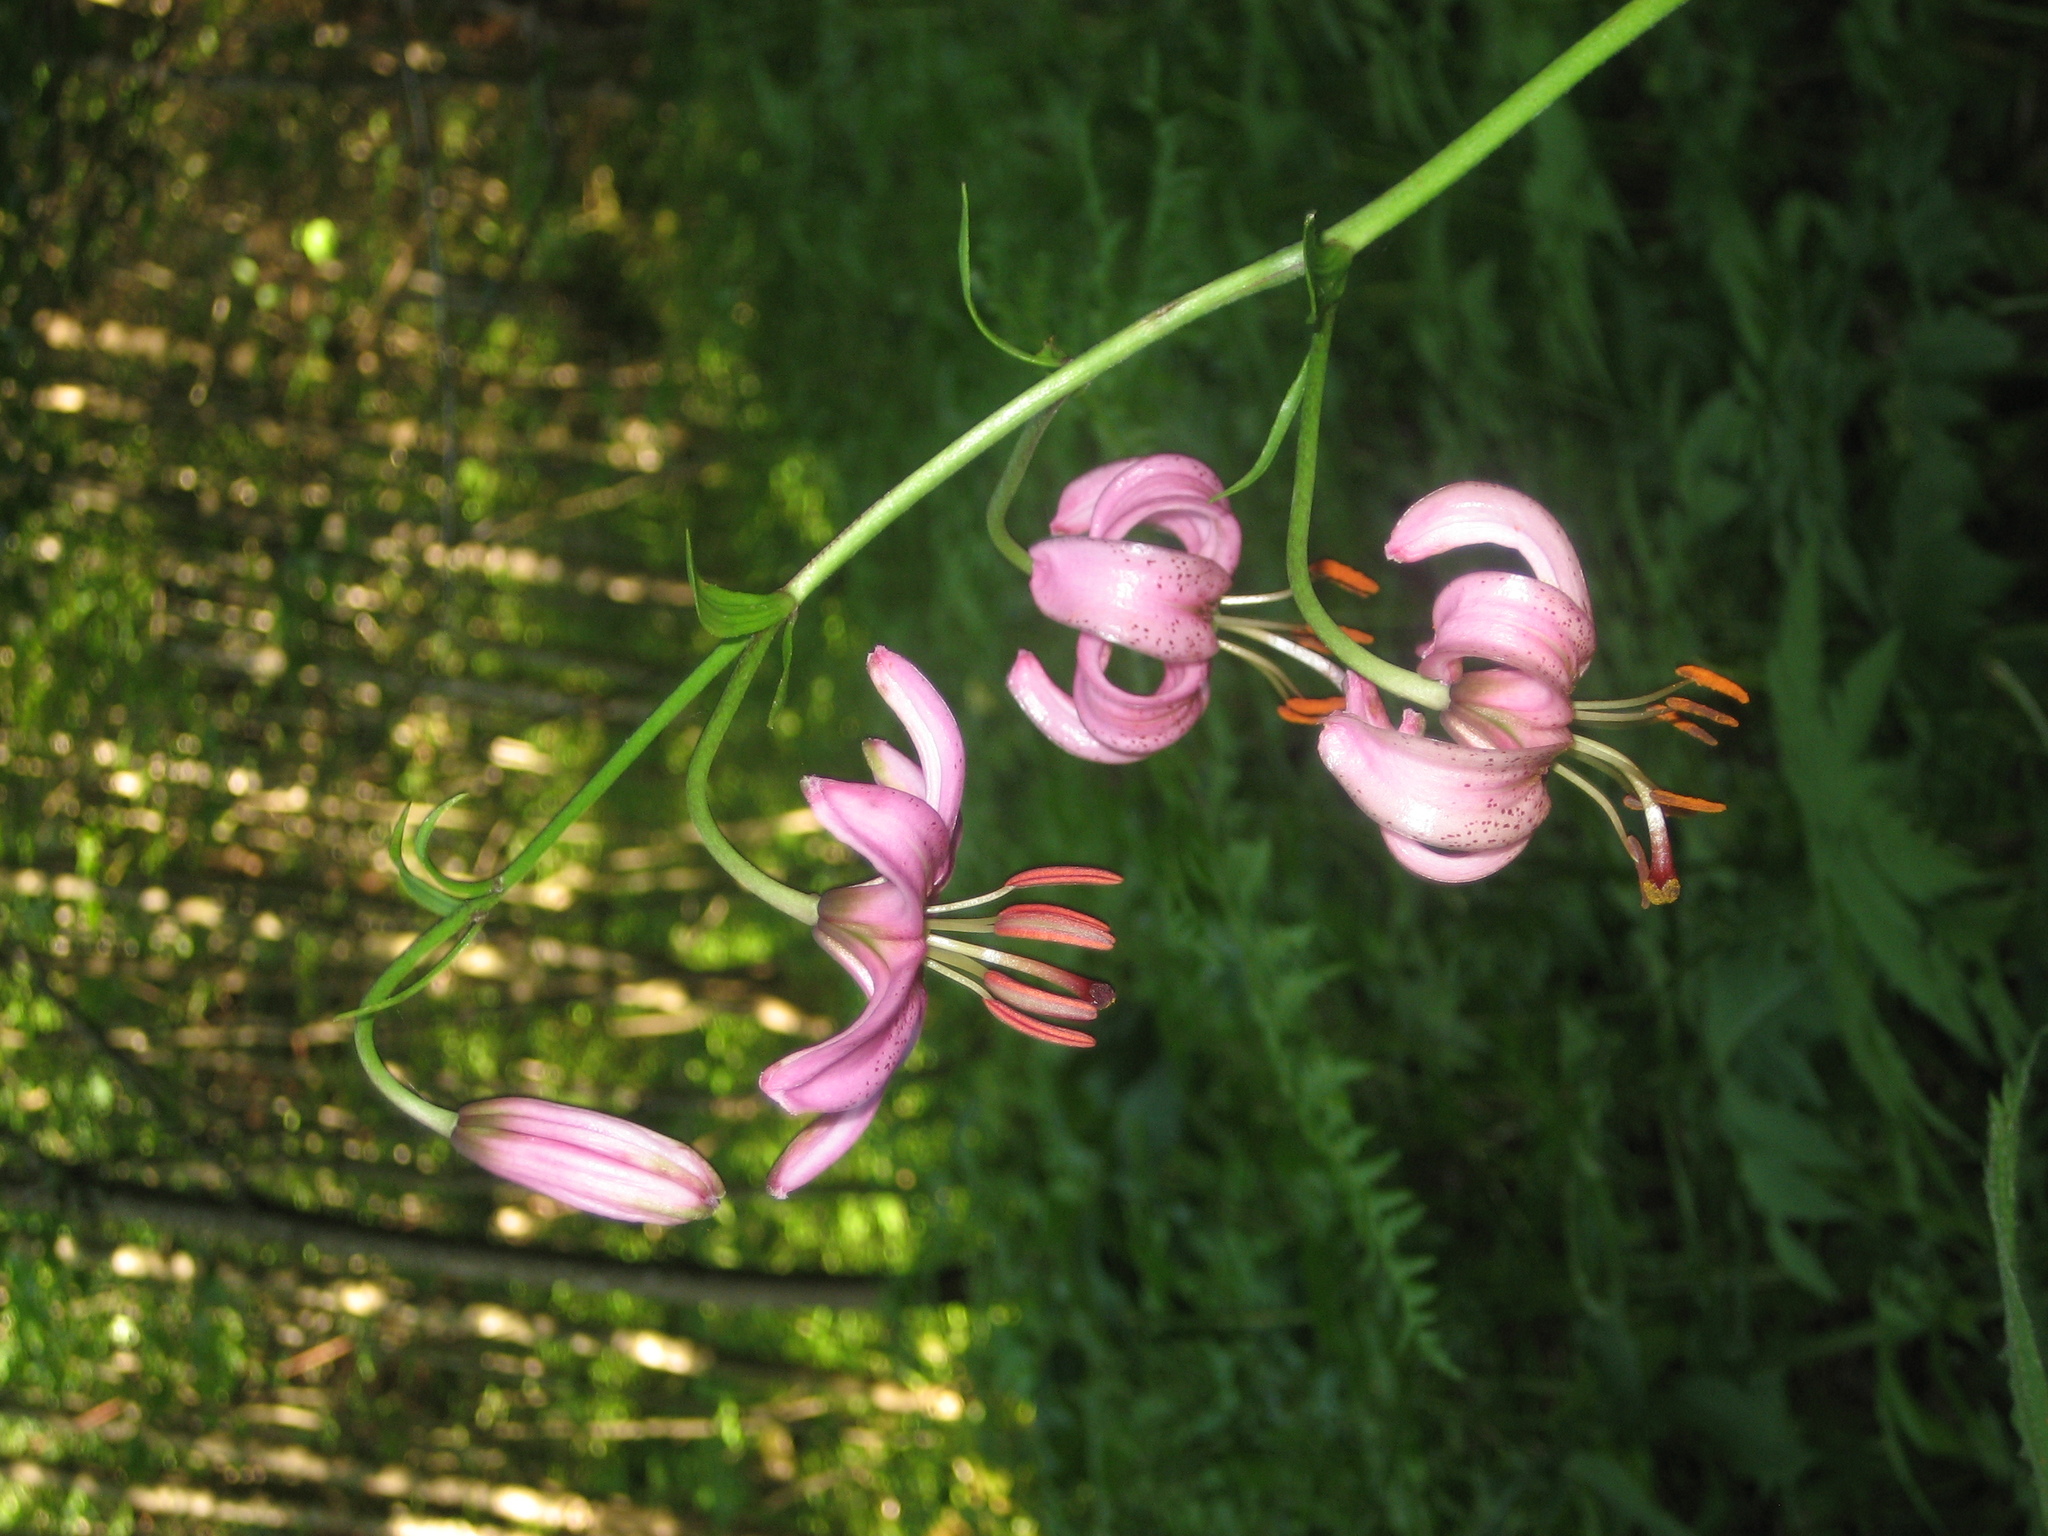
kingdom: Plantae
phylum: Tracheophyta
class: Liliopsida
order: Liliales
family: Liliaceae
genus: Lilium
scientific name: Lilium martagon
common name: Martagon lily
